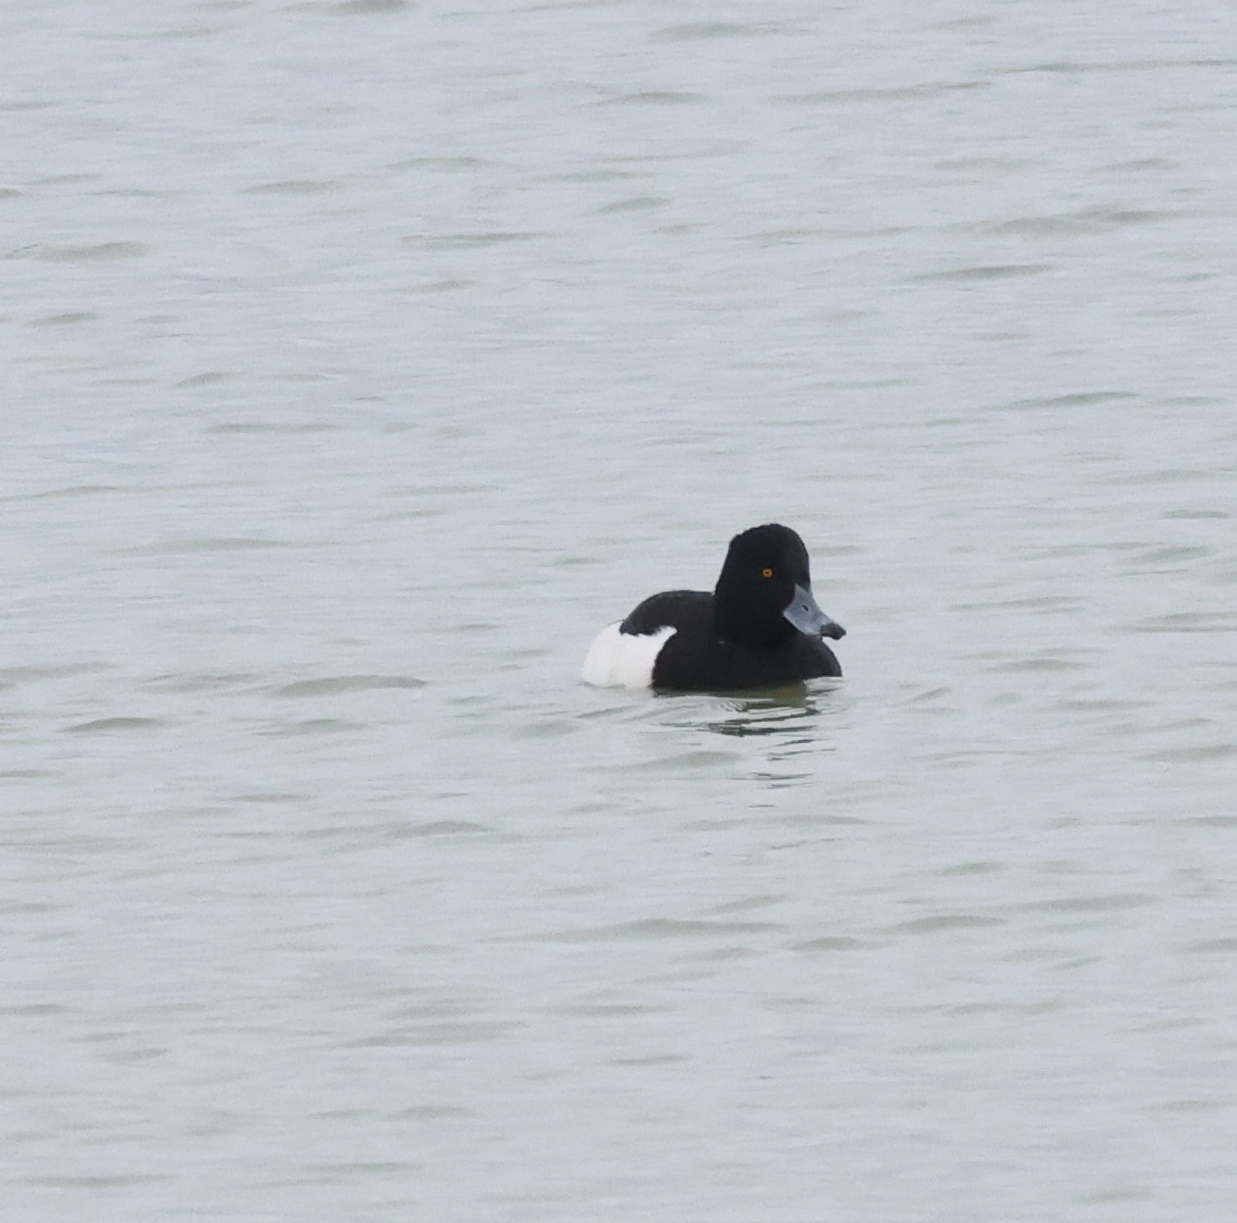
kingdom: Animalia
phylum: Chordata
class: Aves
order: Anseriformes
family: Anatidae
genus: Aythya
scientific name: Aythya fuligula
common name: Tufted duck
